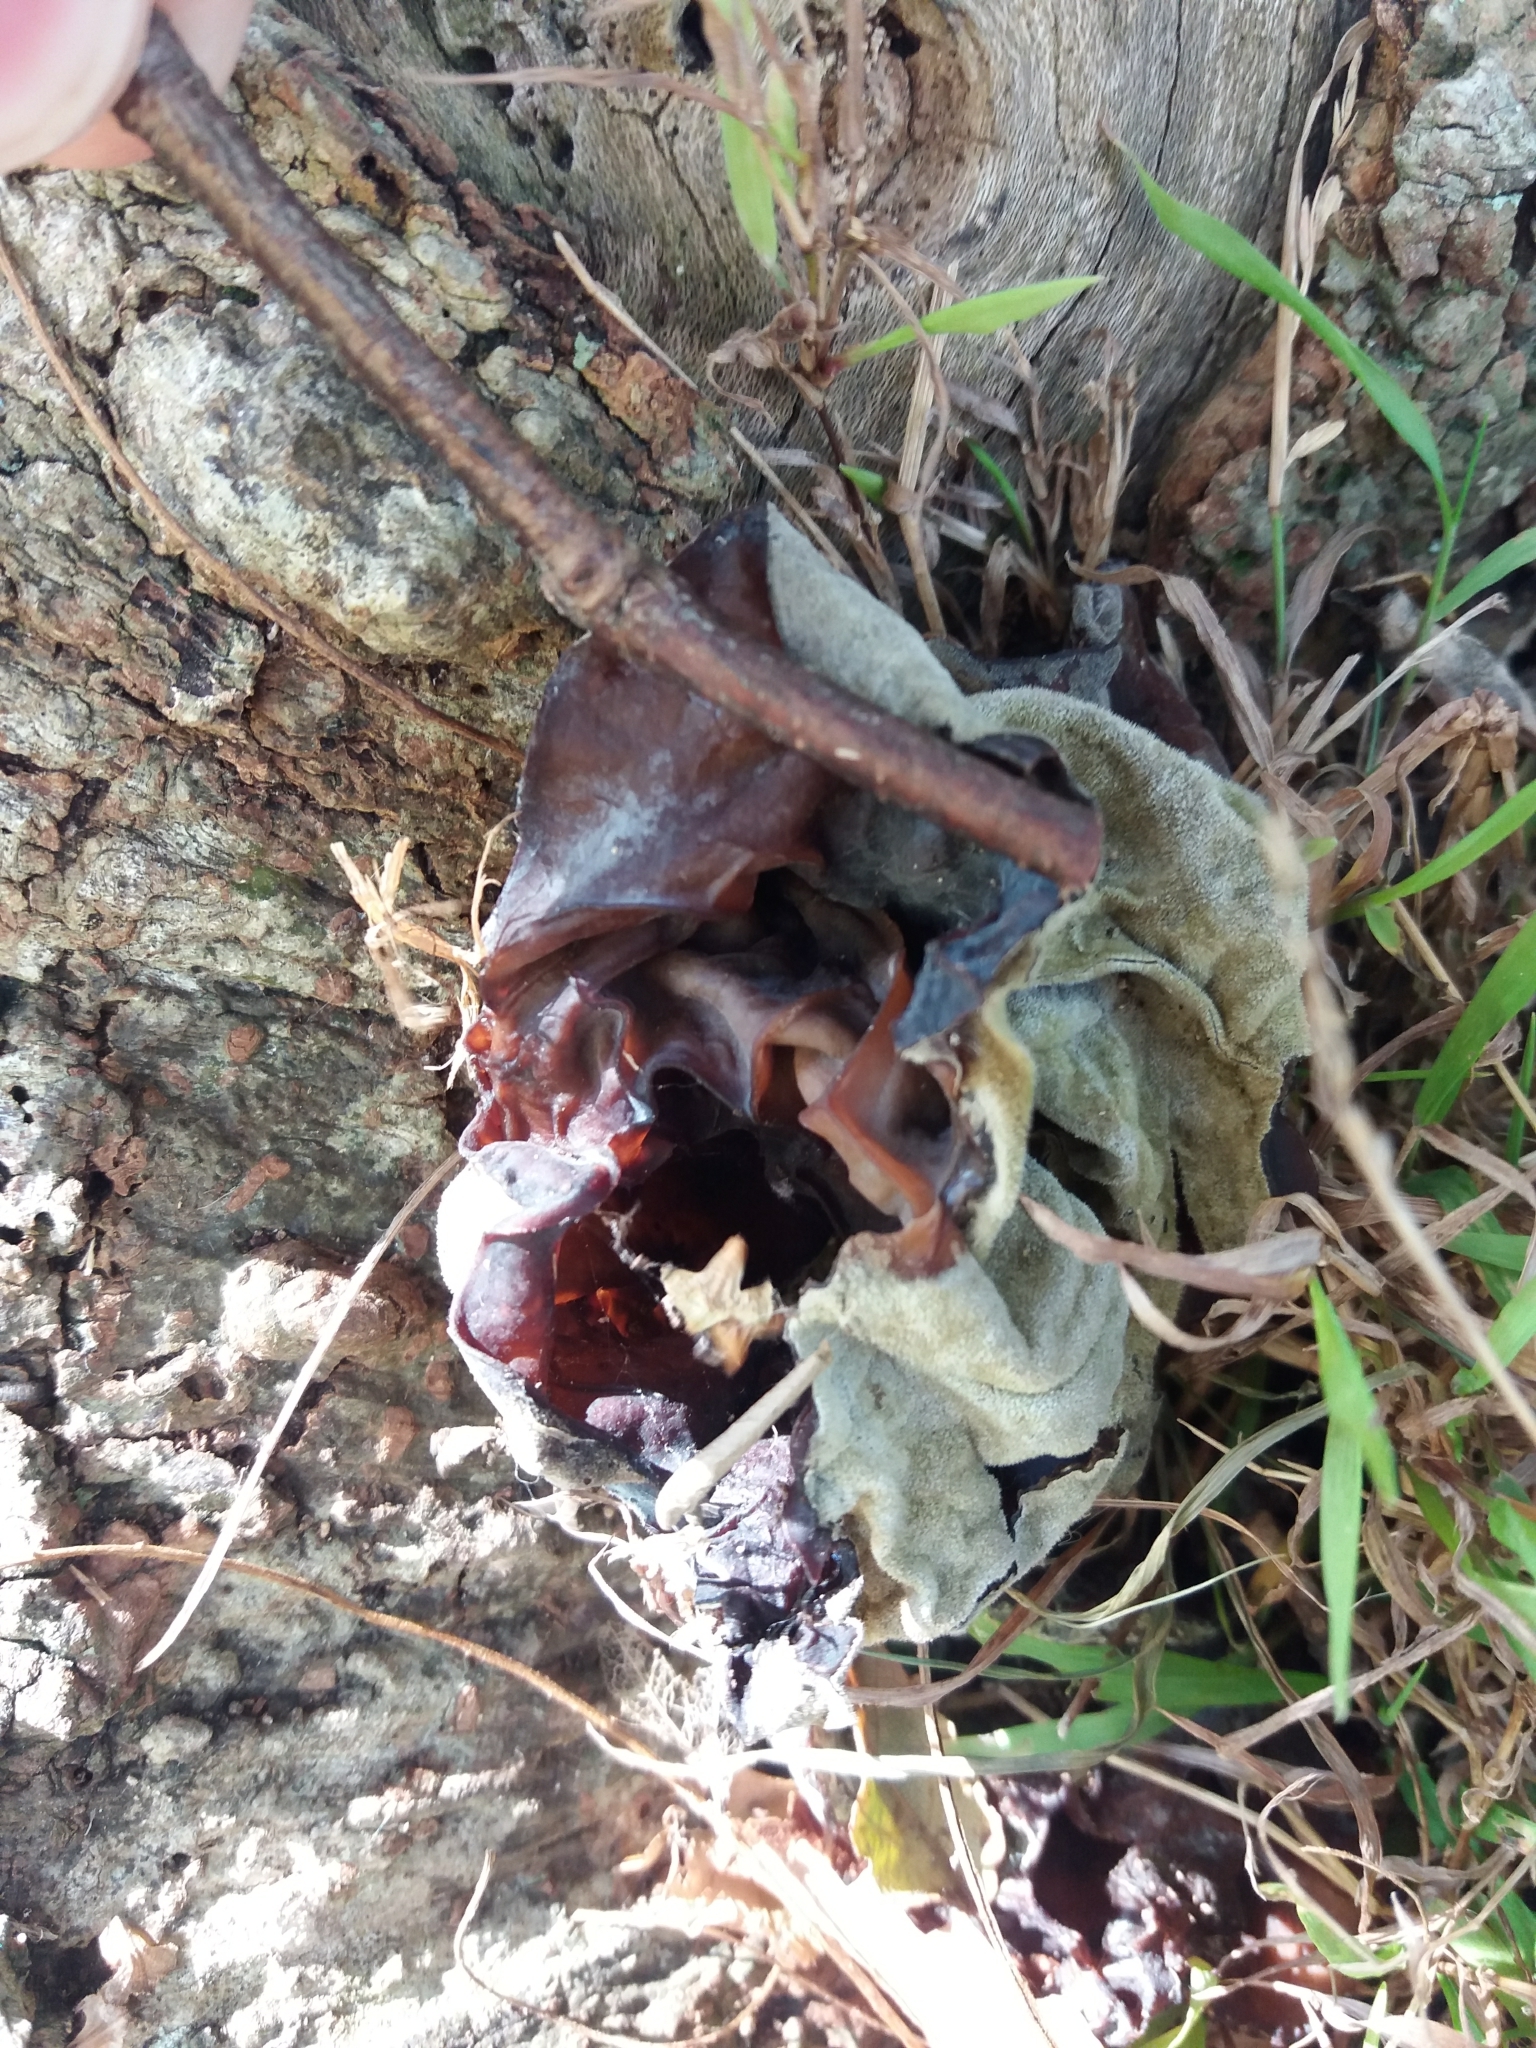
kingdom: Fungi
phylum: Basidiomycota
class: Agaricomycetes
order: Auriculariales
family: Auriculariaceae
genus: Auricularia
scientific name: Auricularia cornea
